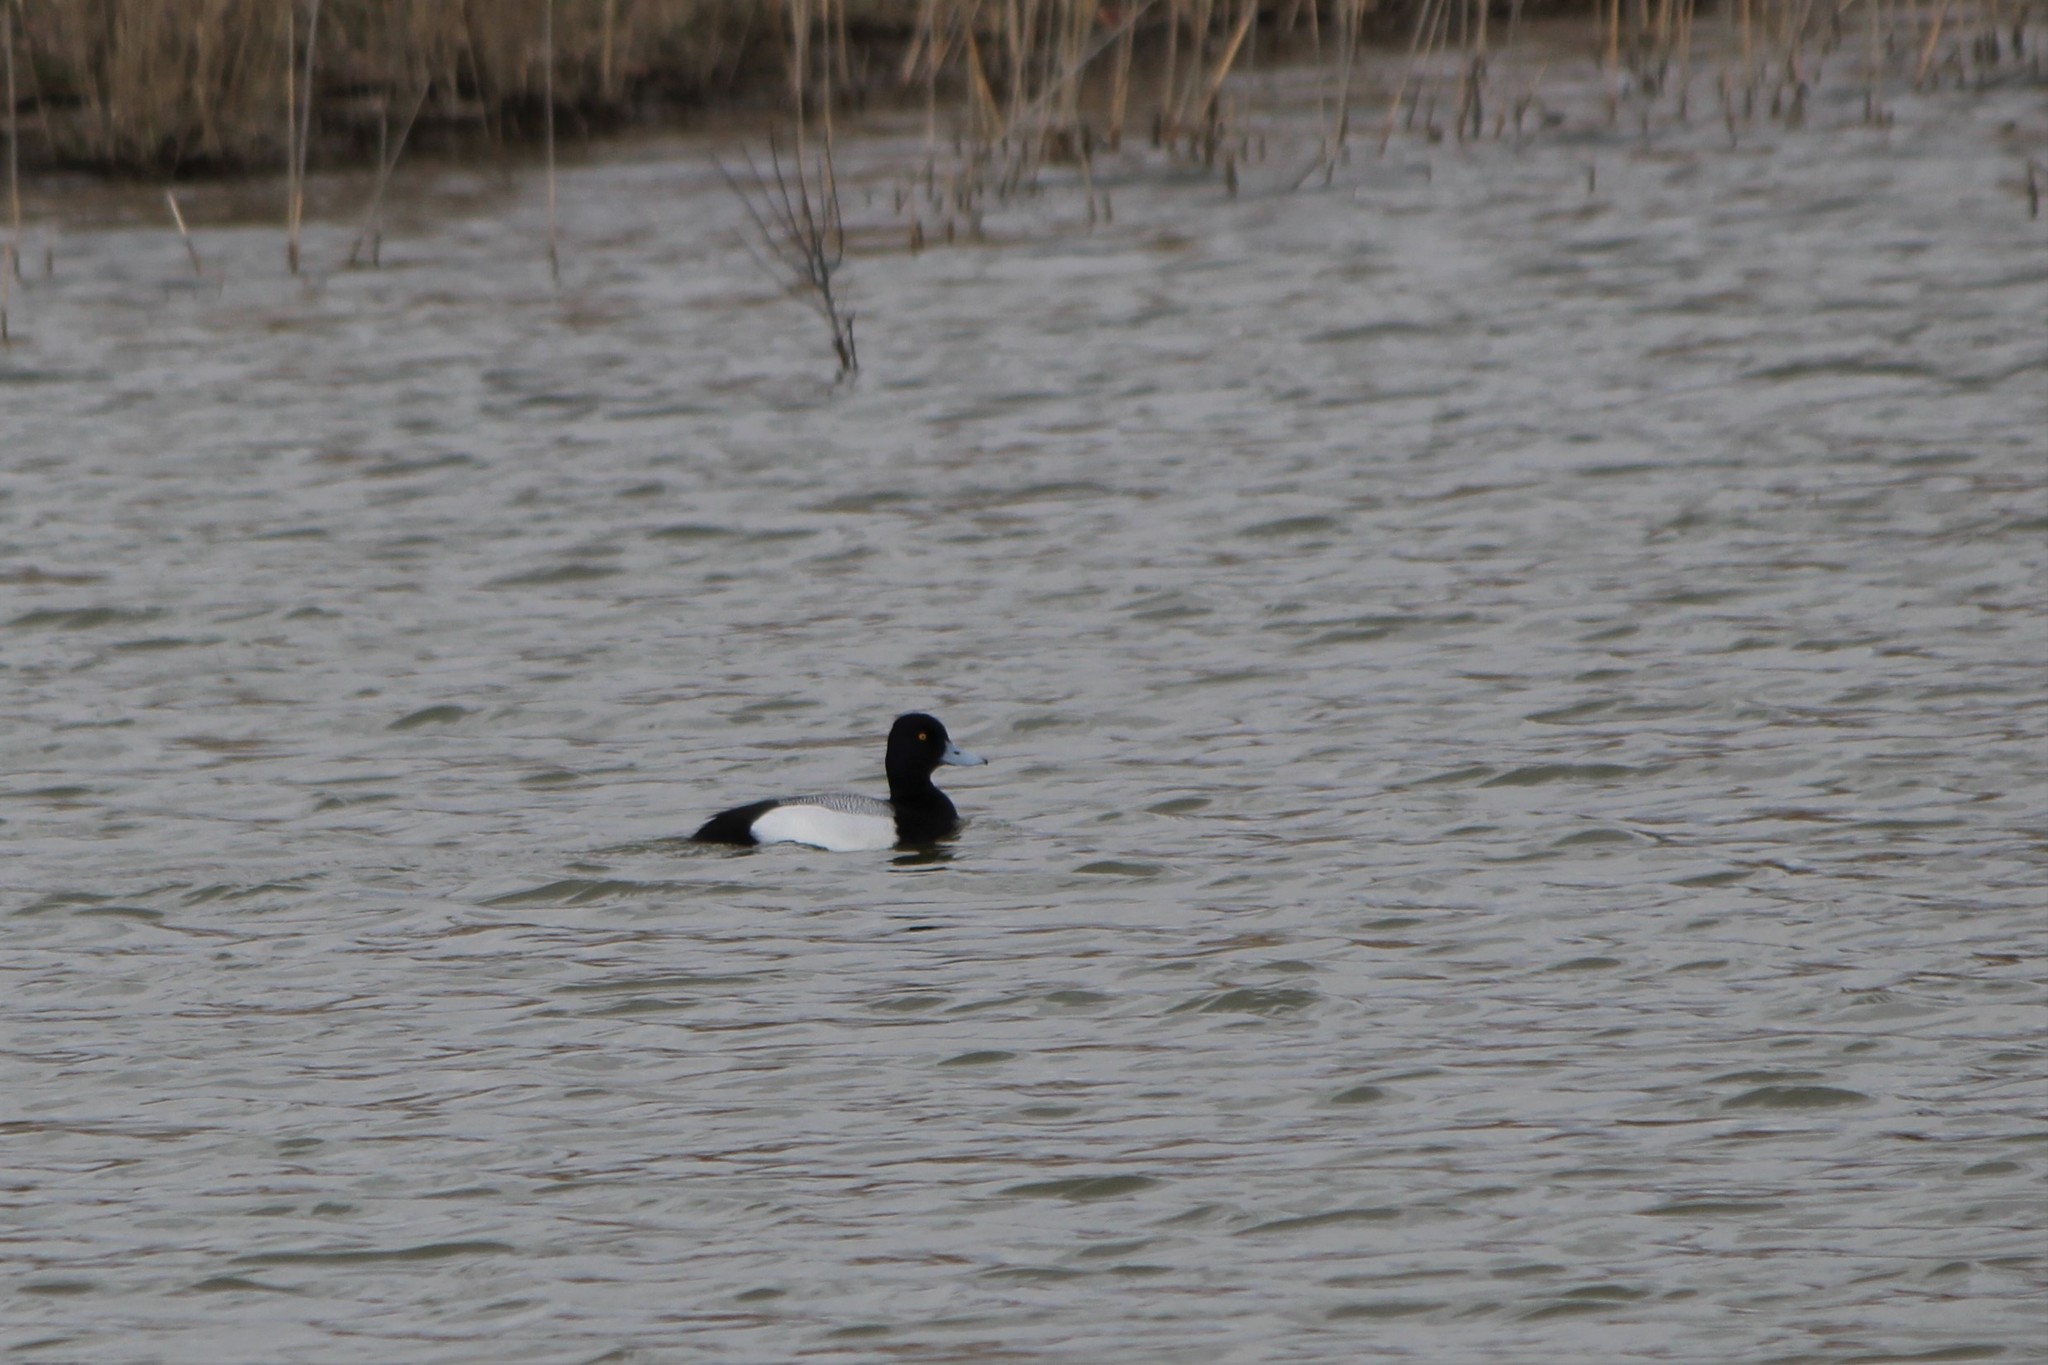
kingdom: Animalia
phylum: Chordata
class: Aves
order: Anseriformes
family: Anatidae
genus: Aythya
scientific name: Aythya affinis
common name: Lesser scaup
